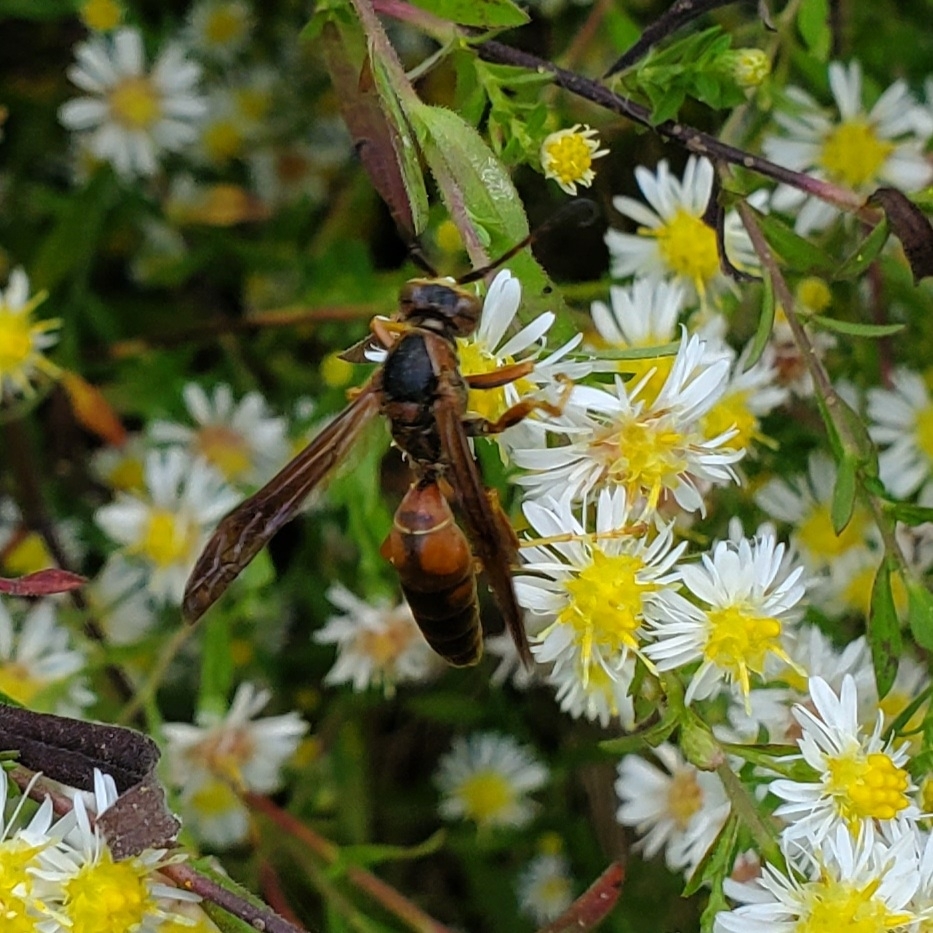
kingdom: Animalia
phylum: Arthropoda
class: Insecta
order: Hymenoptera
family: Eumenidae
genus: Polistes
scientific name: Polistes fuscatus
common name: Dark paper wasp
